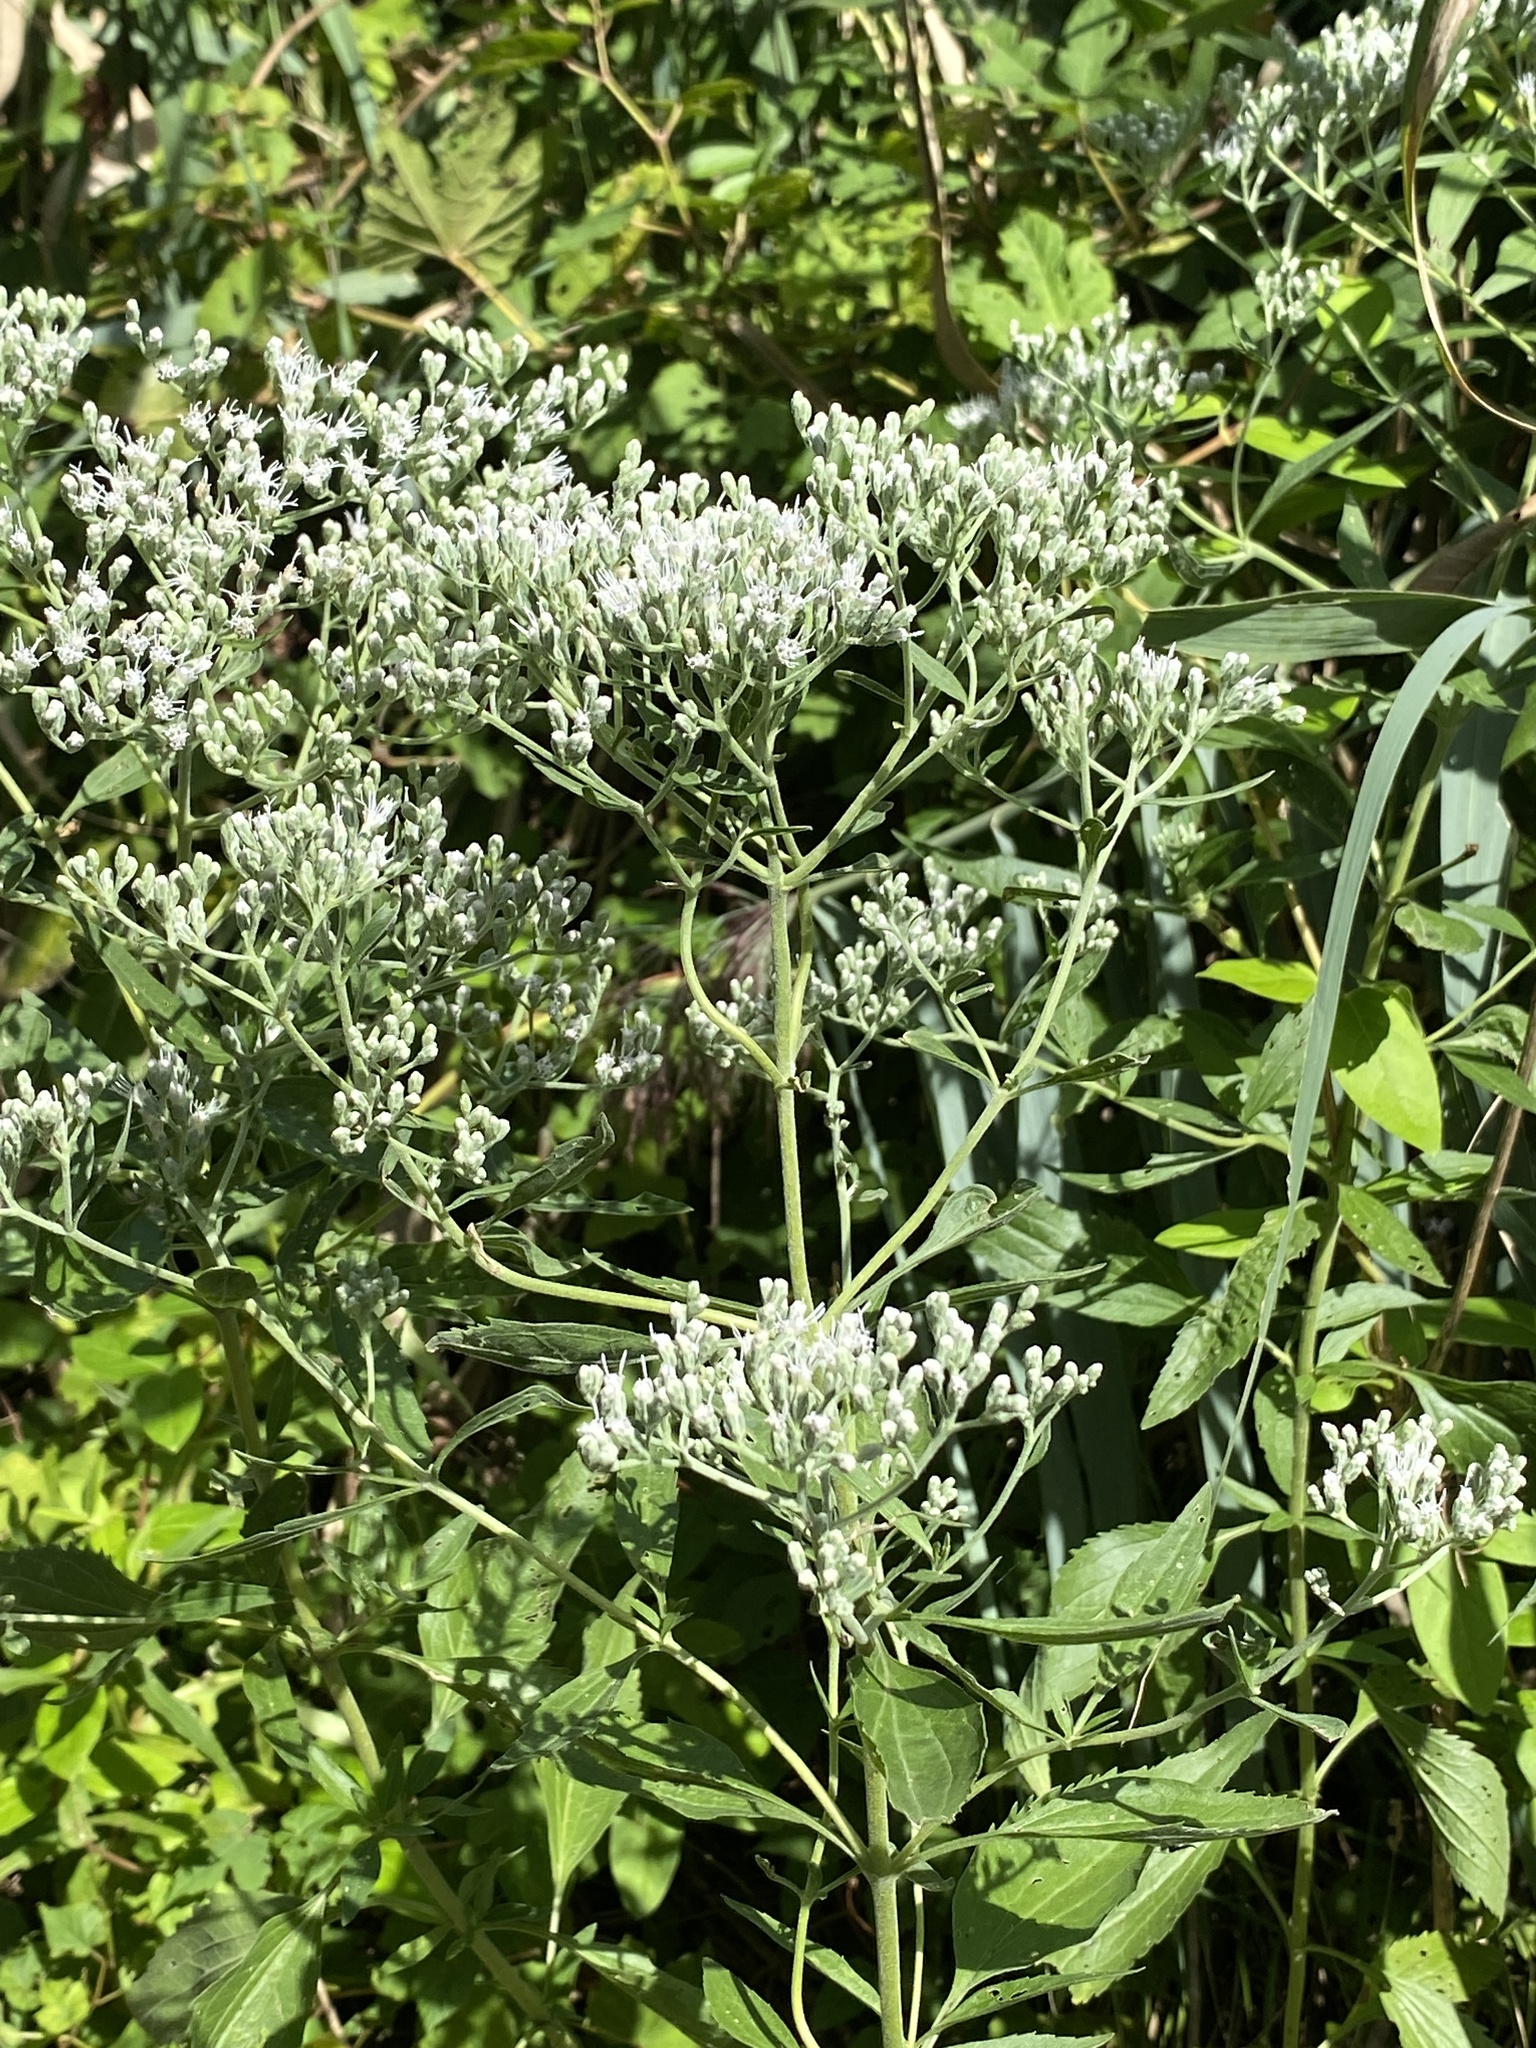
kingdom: Plantae
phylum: Tracheophyta
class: Magnoliopsida
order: Asterales
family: Asteraceae
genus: Eupatorium
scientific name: Eupatorium serotinum
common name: Late boneset
